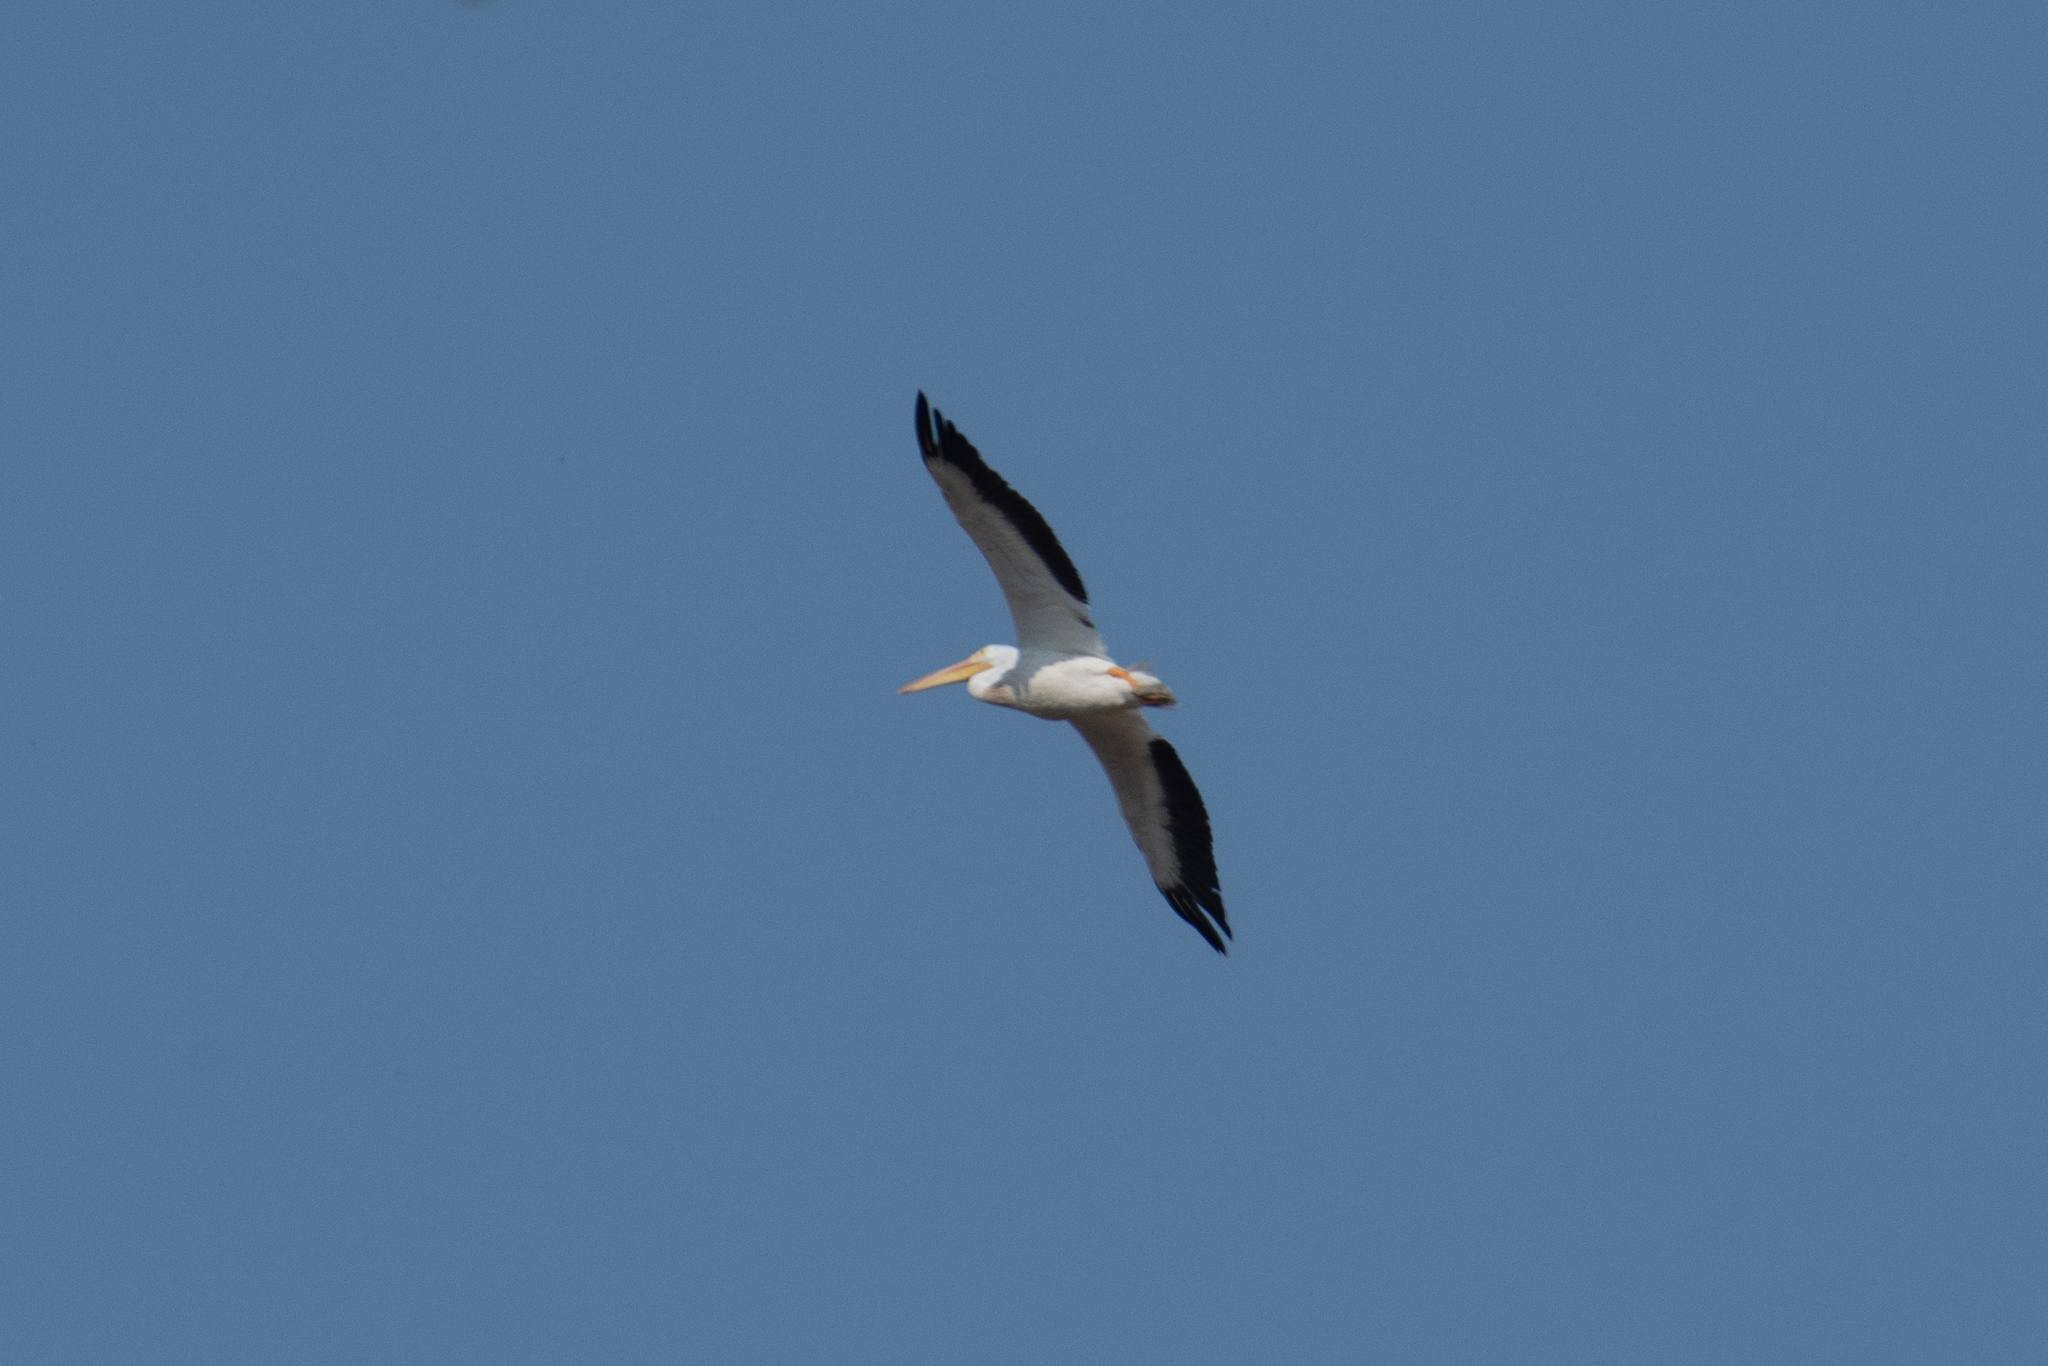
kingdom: Animalia
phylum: Chordata
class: Aves
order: Pelecaniformes
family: Pelecanidae
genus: Pelecanus
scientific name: Pelecanus erythrorhynchos
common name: American white pelican
